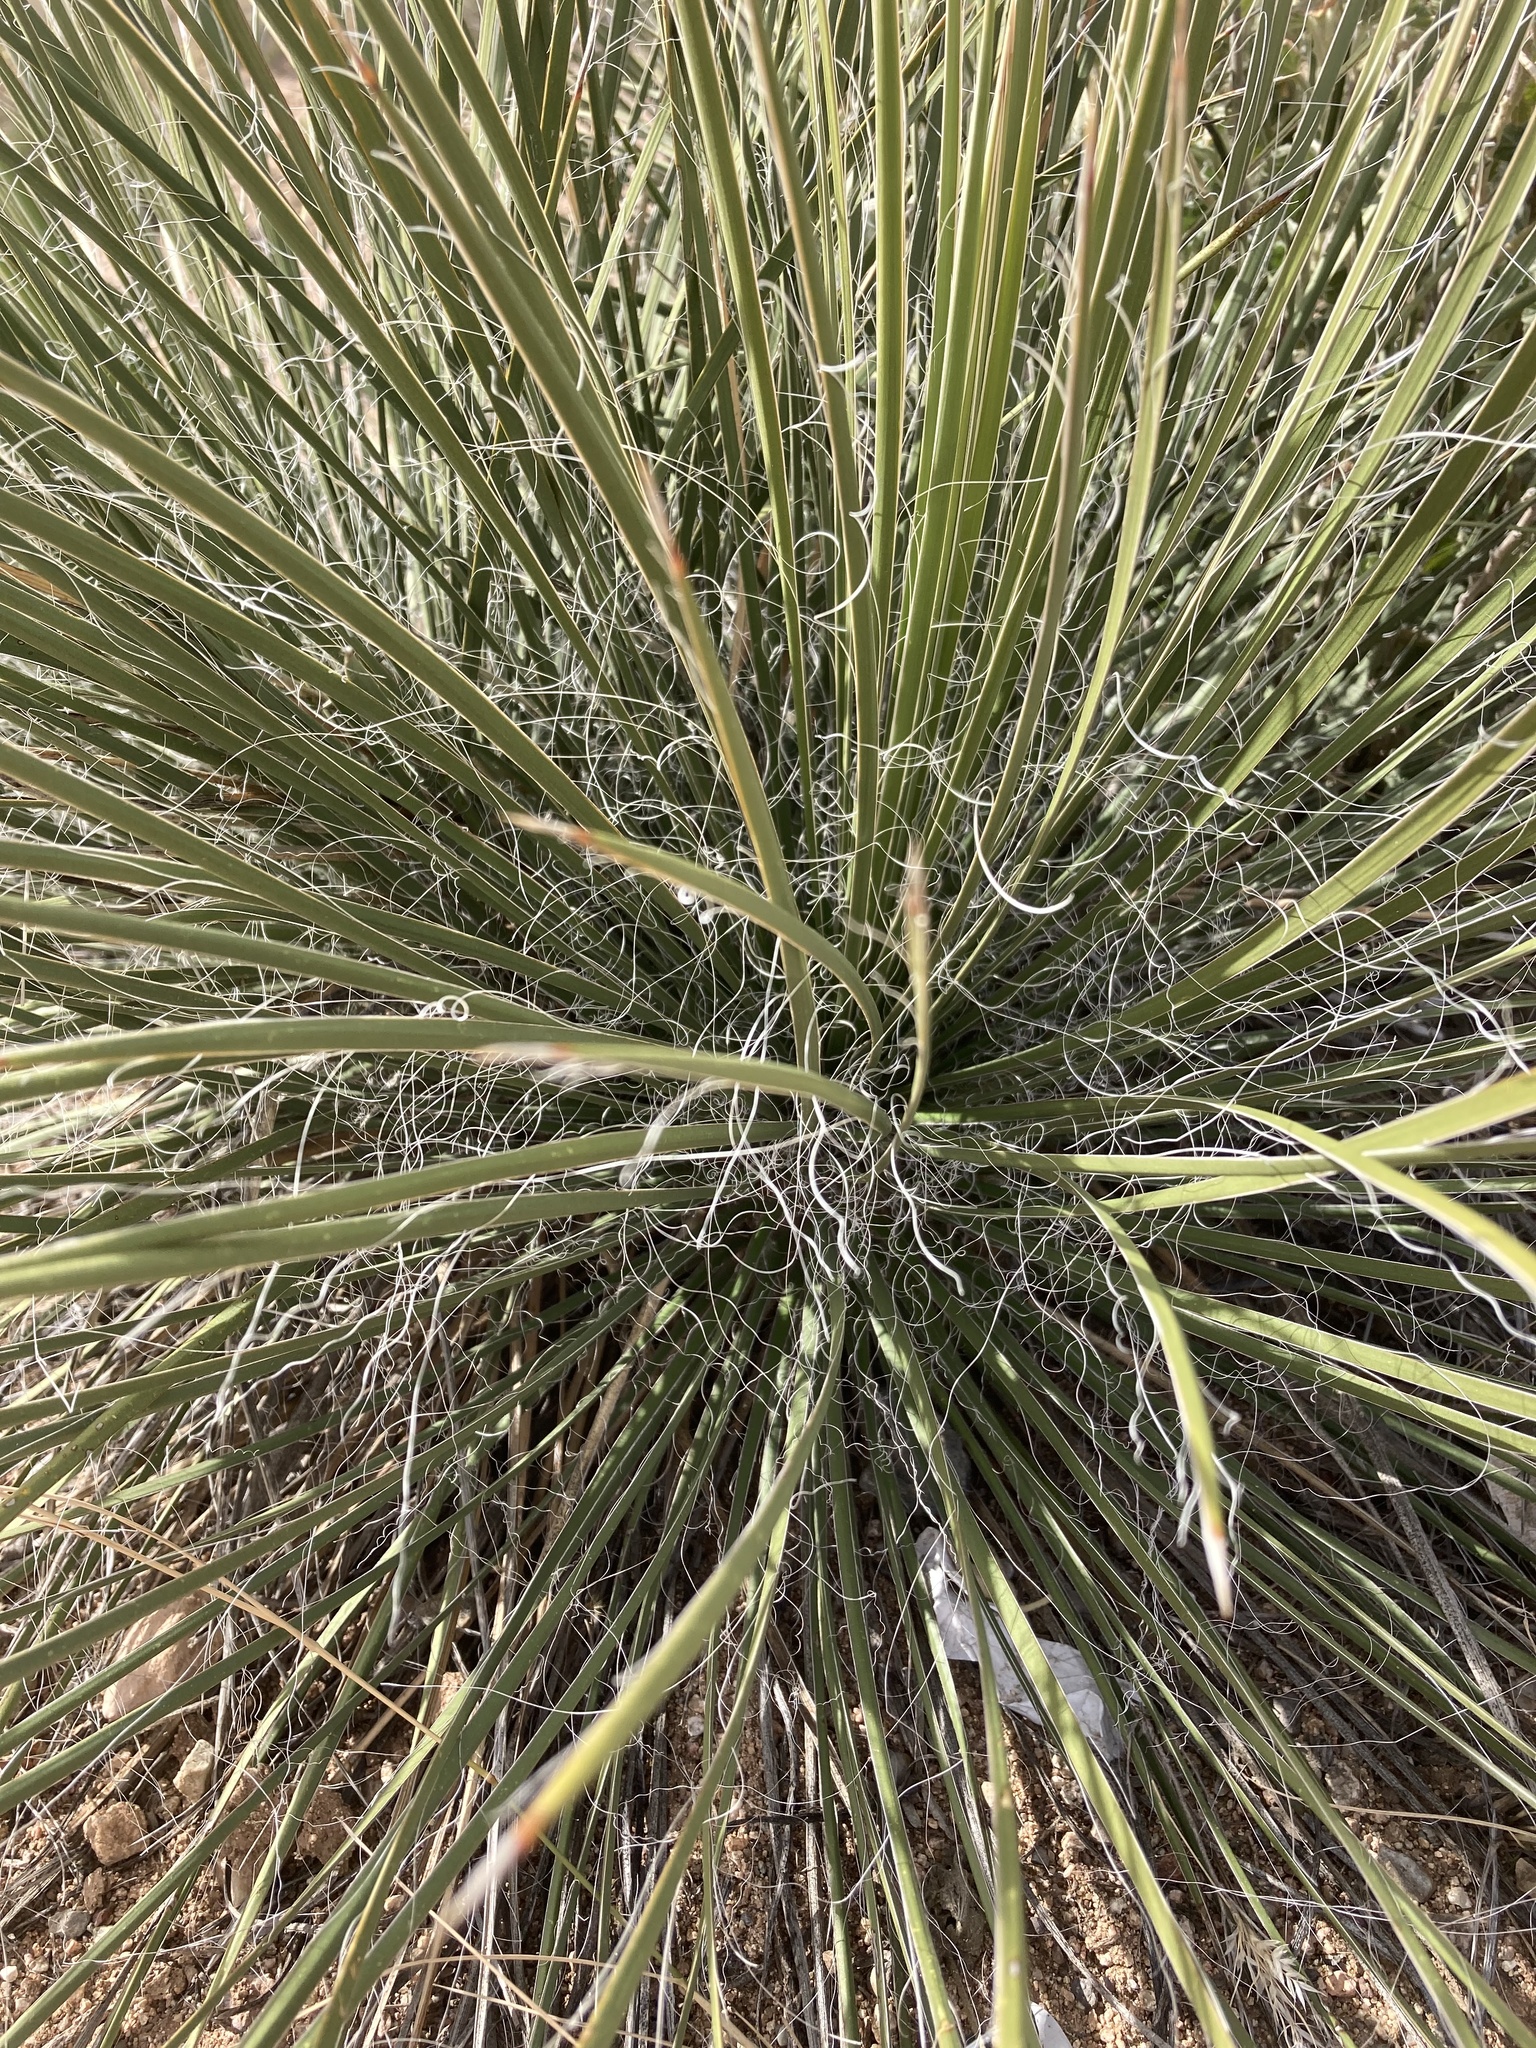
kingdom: Plantae
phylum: Tracheophyta
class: Liliopsida
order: Asparagales
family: Asparagaceae
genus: Yucca
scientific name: Yucca elata
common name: Palmella
